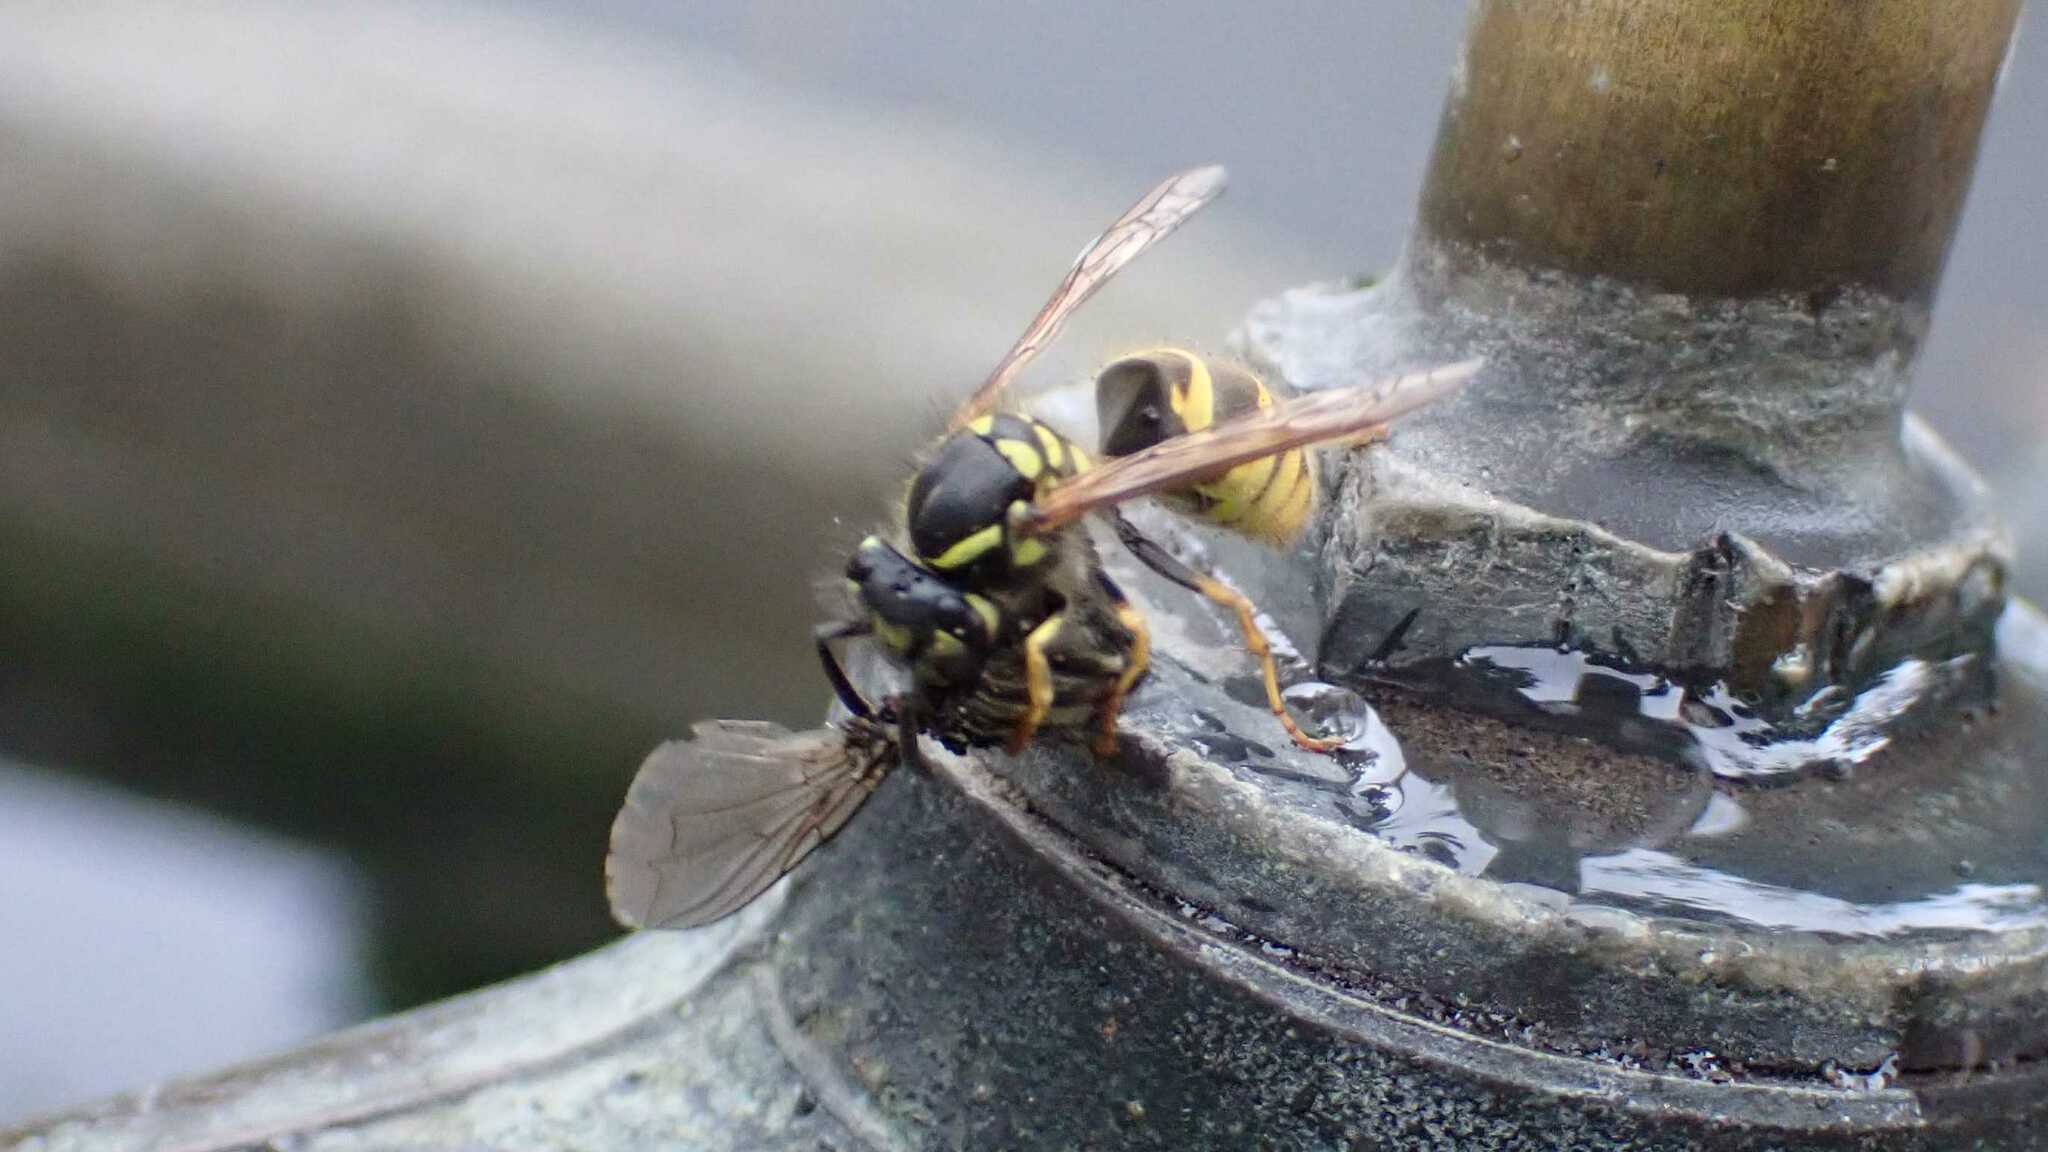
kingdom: Animalia
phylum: Arthropoda
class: Insecta
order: Hymenoptera
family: Vespidae
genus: Vespula
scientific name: Vespula vulgaris
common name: Common wasp
